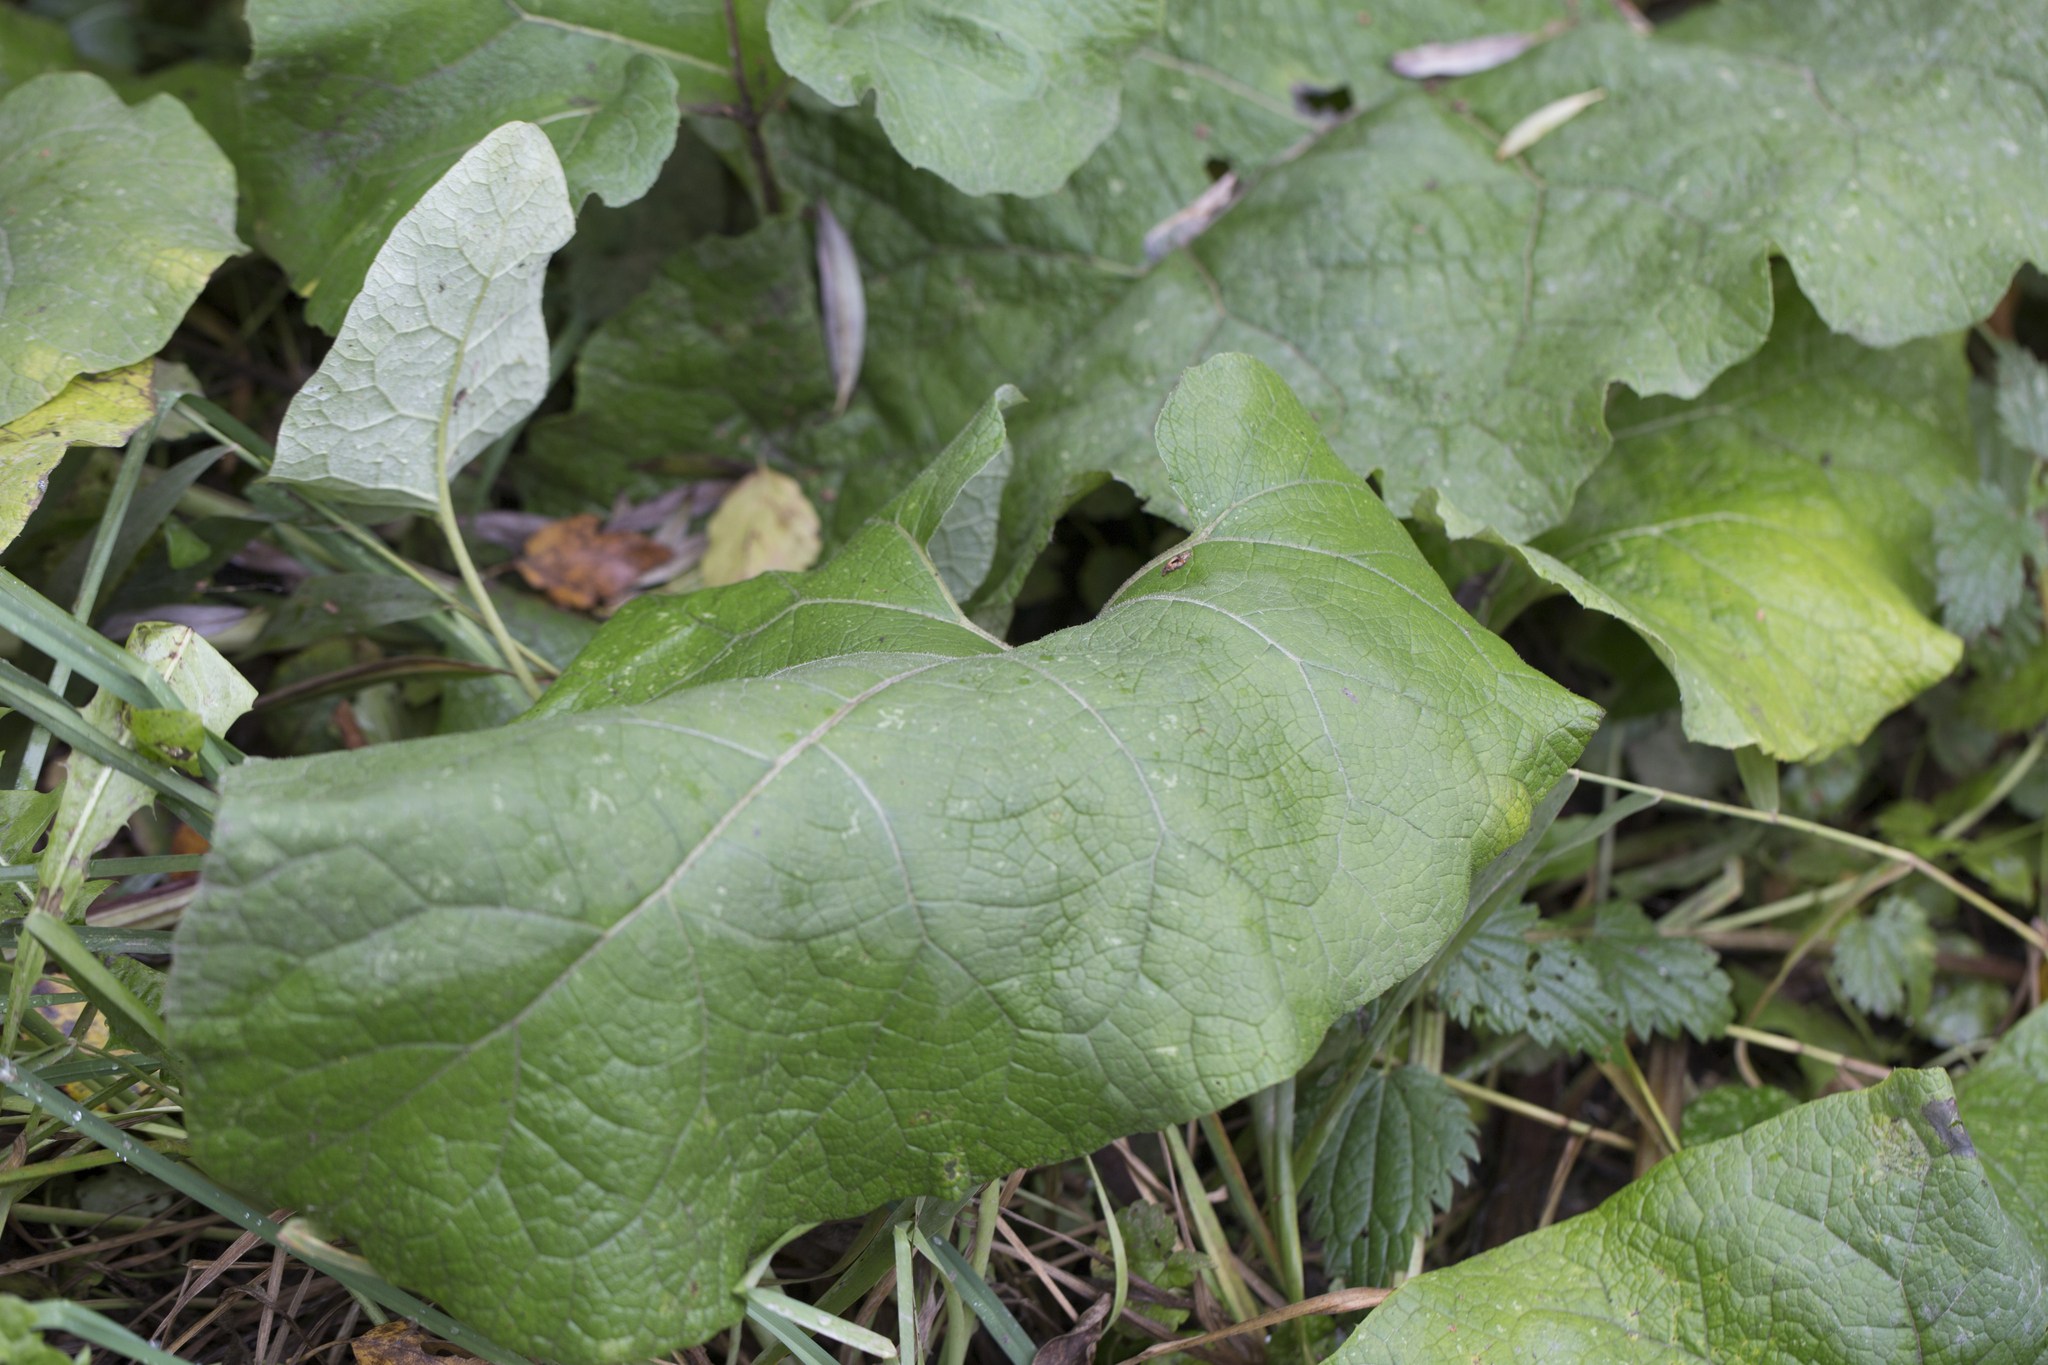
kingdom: Plantae
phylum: Tracheophyta
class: Magnoliopsida
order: Asterales
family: Asteraceae
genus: Arctium
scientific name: Arctium tomentosum
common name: Woolly burdock
